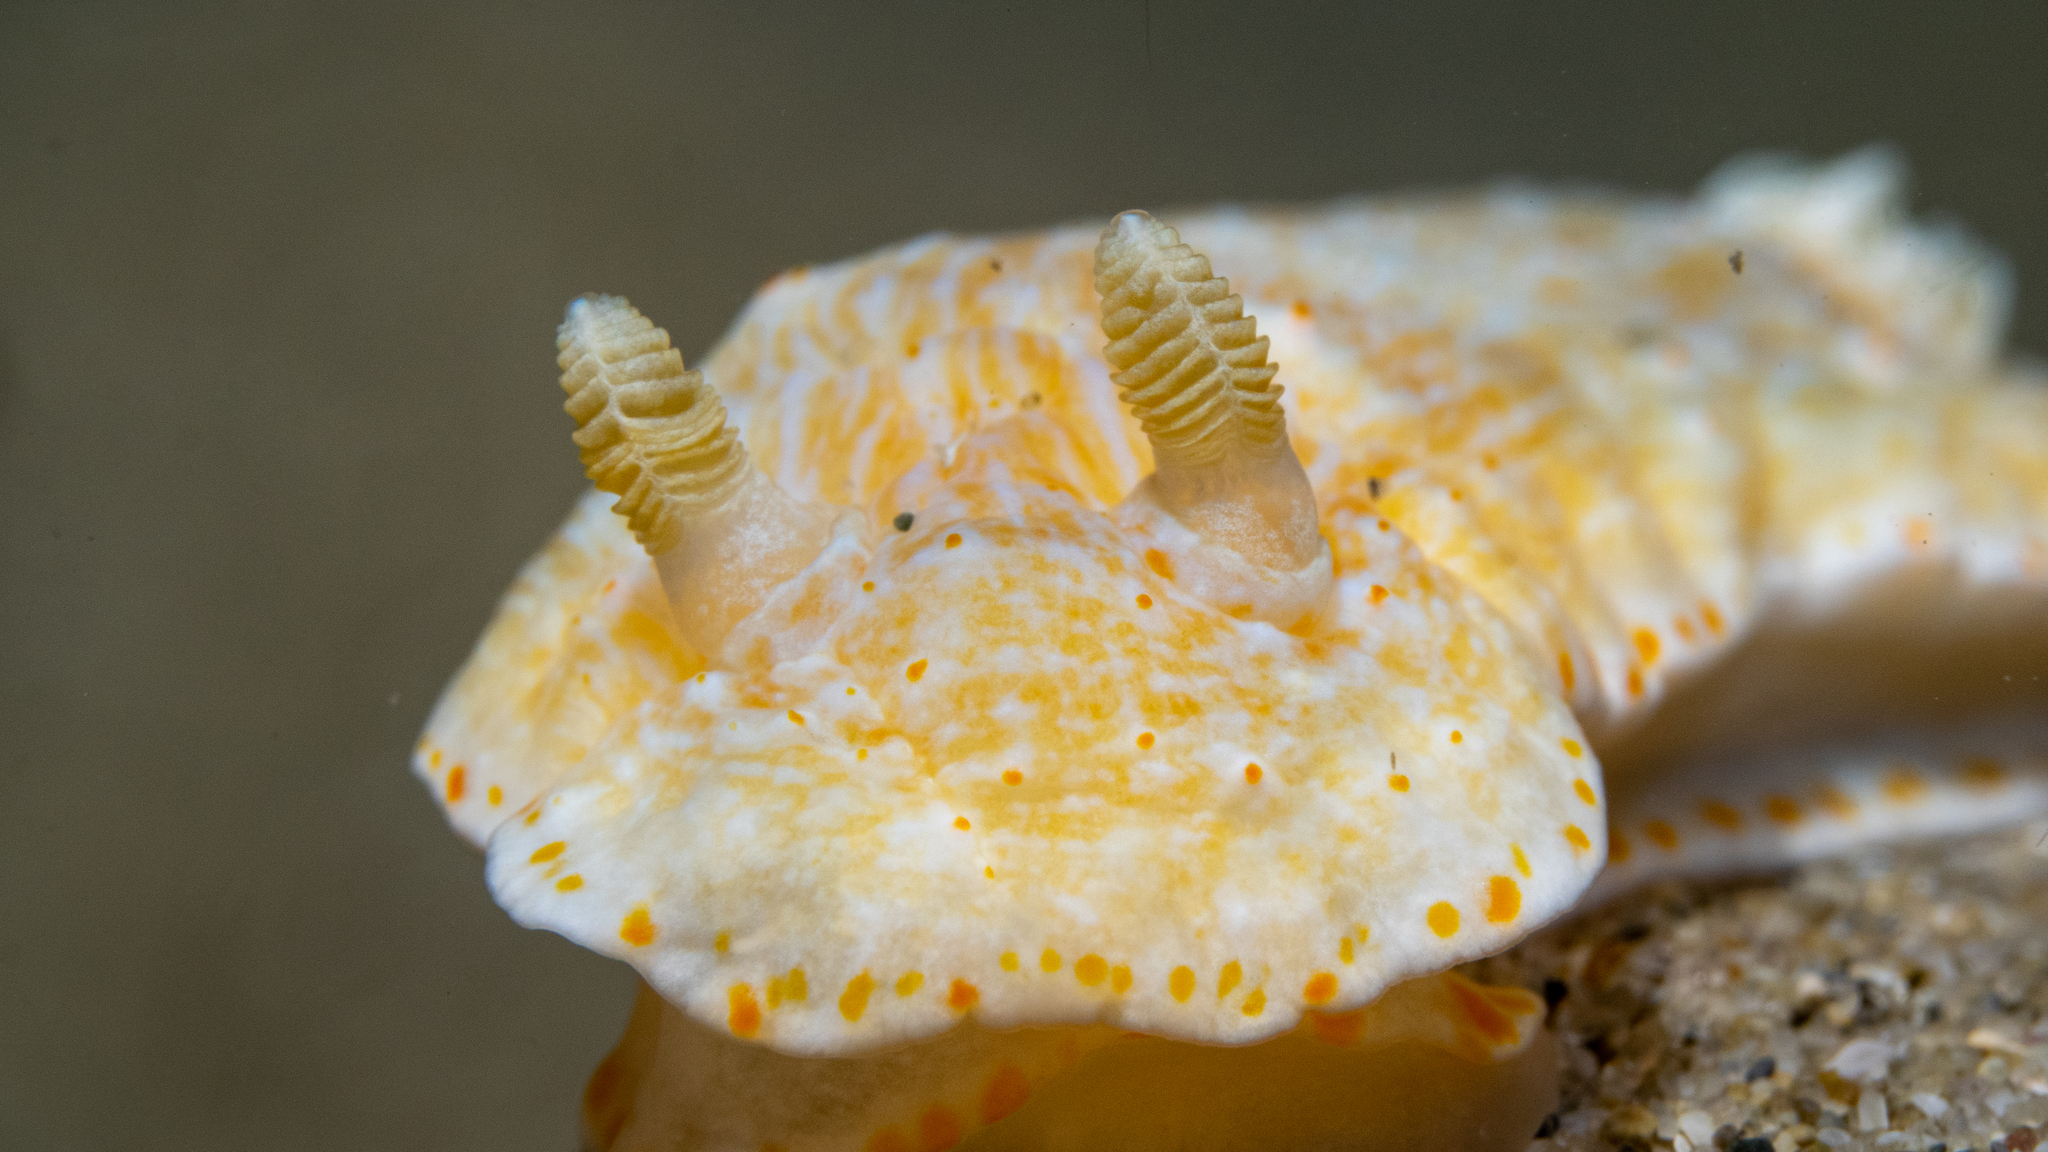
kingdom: Animalia
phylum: Mollusca
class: Gastropoda
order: Nudibranchia
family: Chromodorididae
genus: Goniobranchus
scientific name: Goniobranchus epicurius
